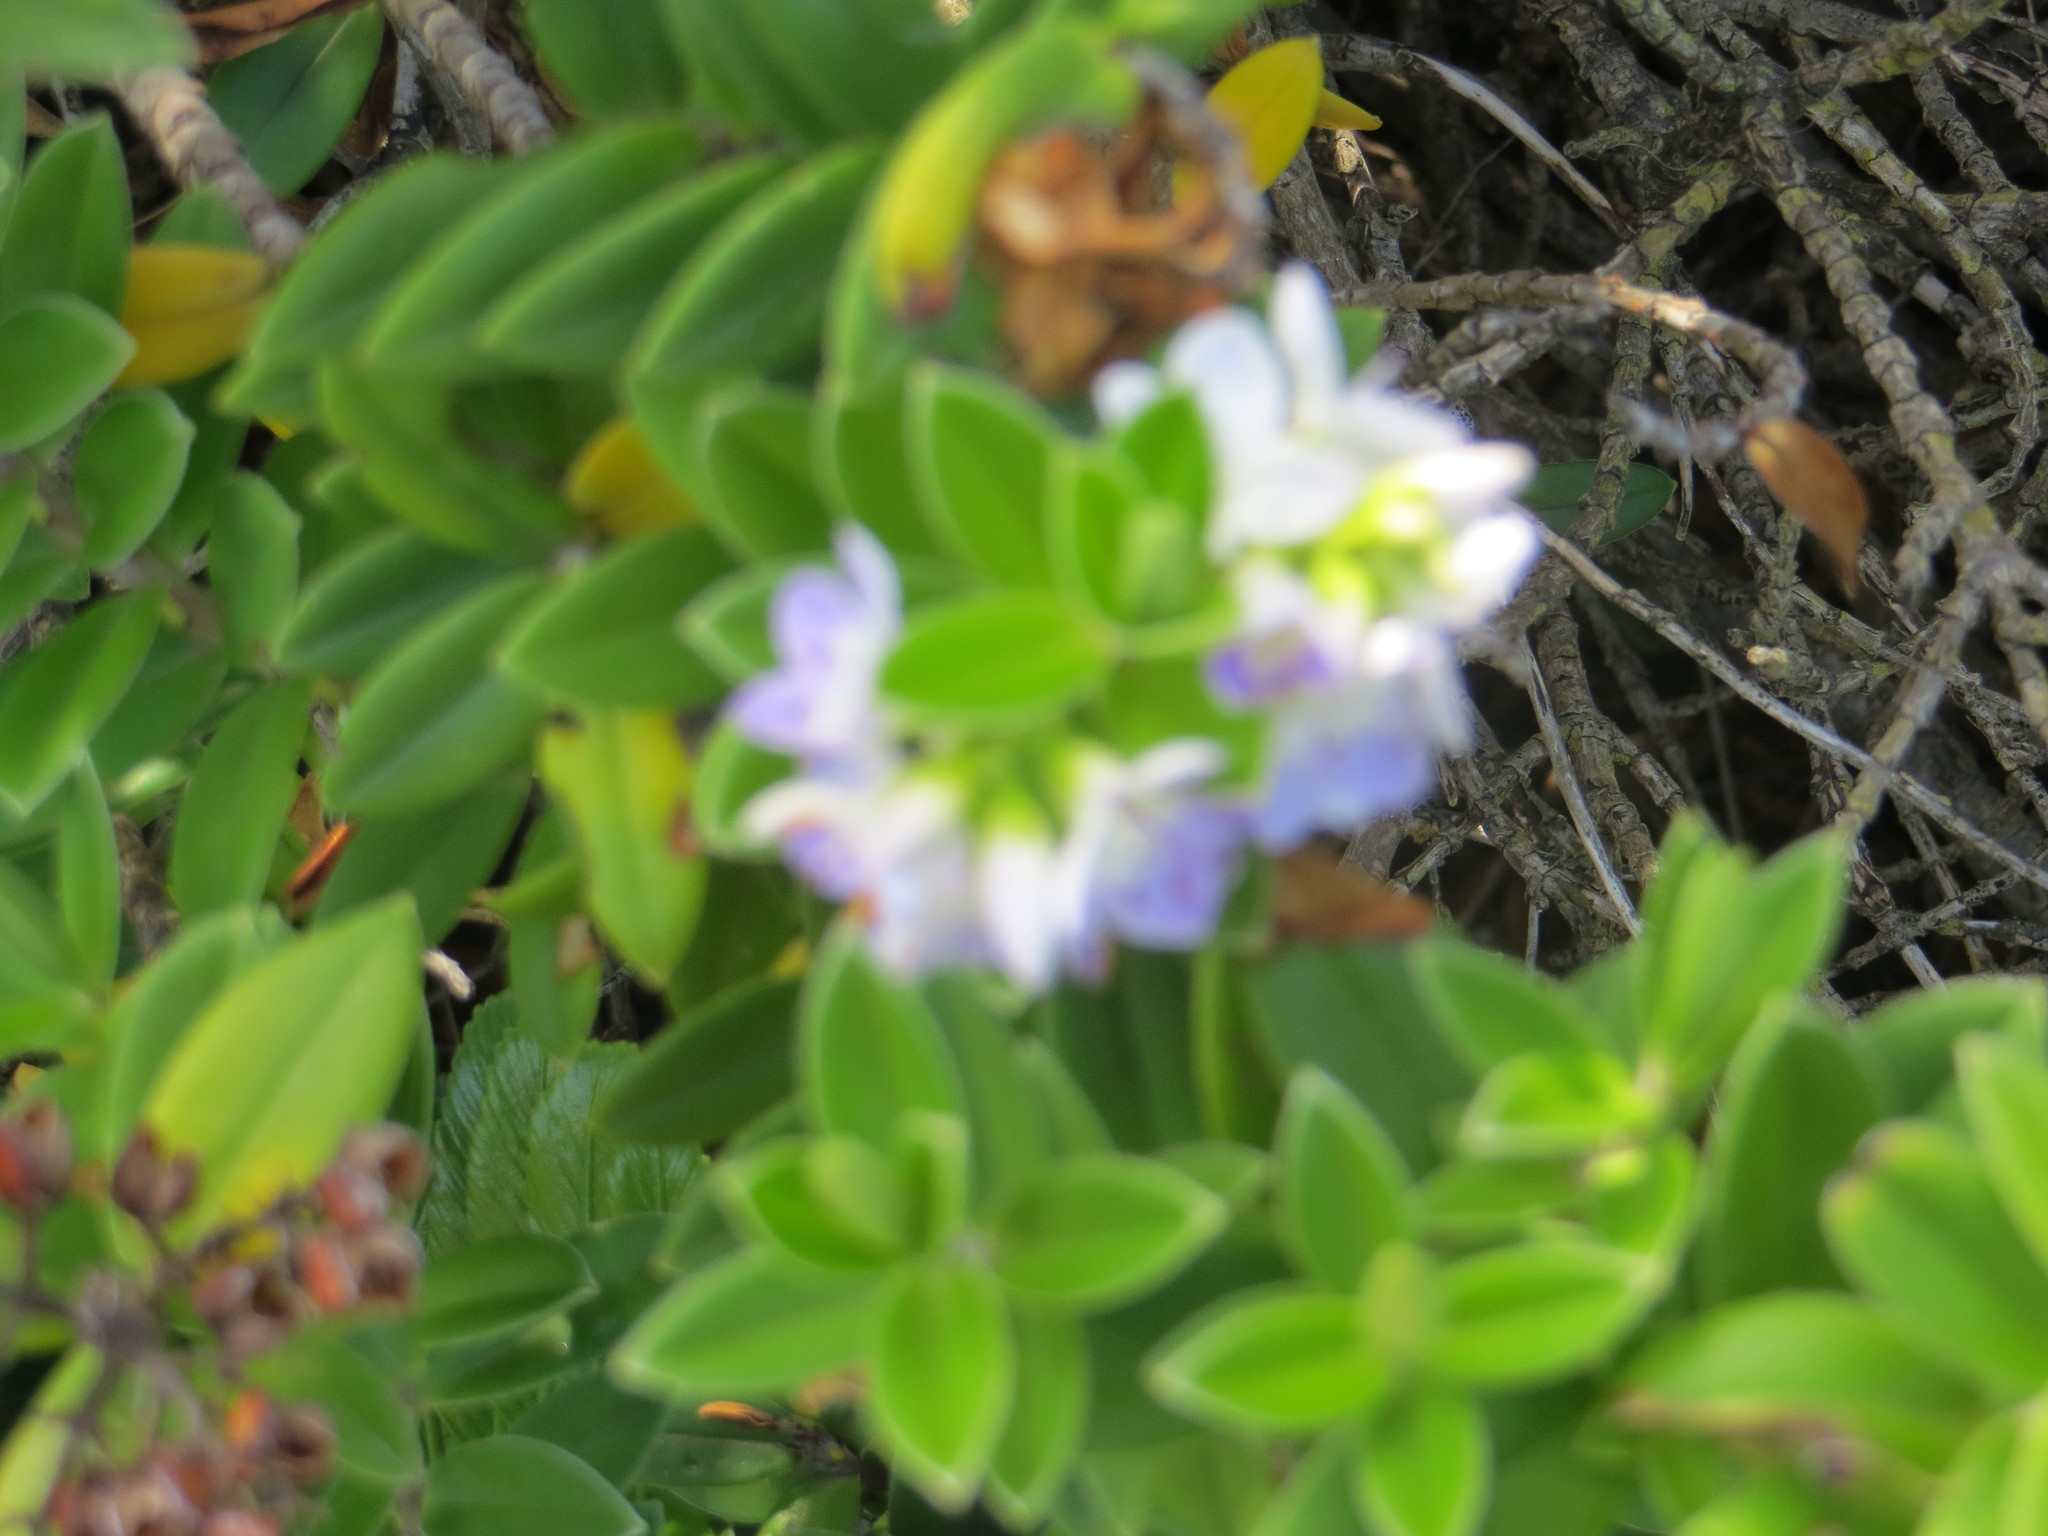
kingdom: Plantae
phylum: Tracheophyta
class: Magnoliopsida
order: Lamiales
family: Plantaginaceae
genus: Veronica
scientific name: Veronica elliptica
